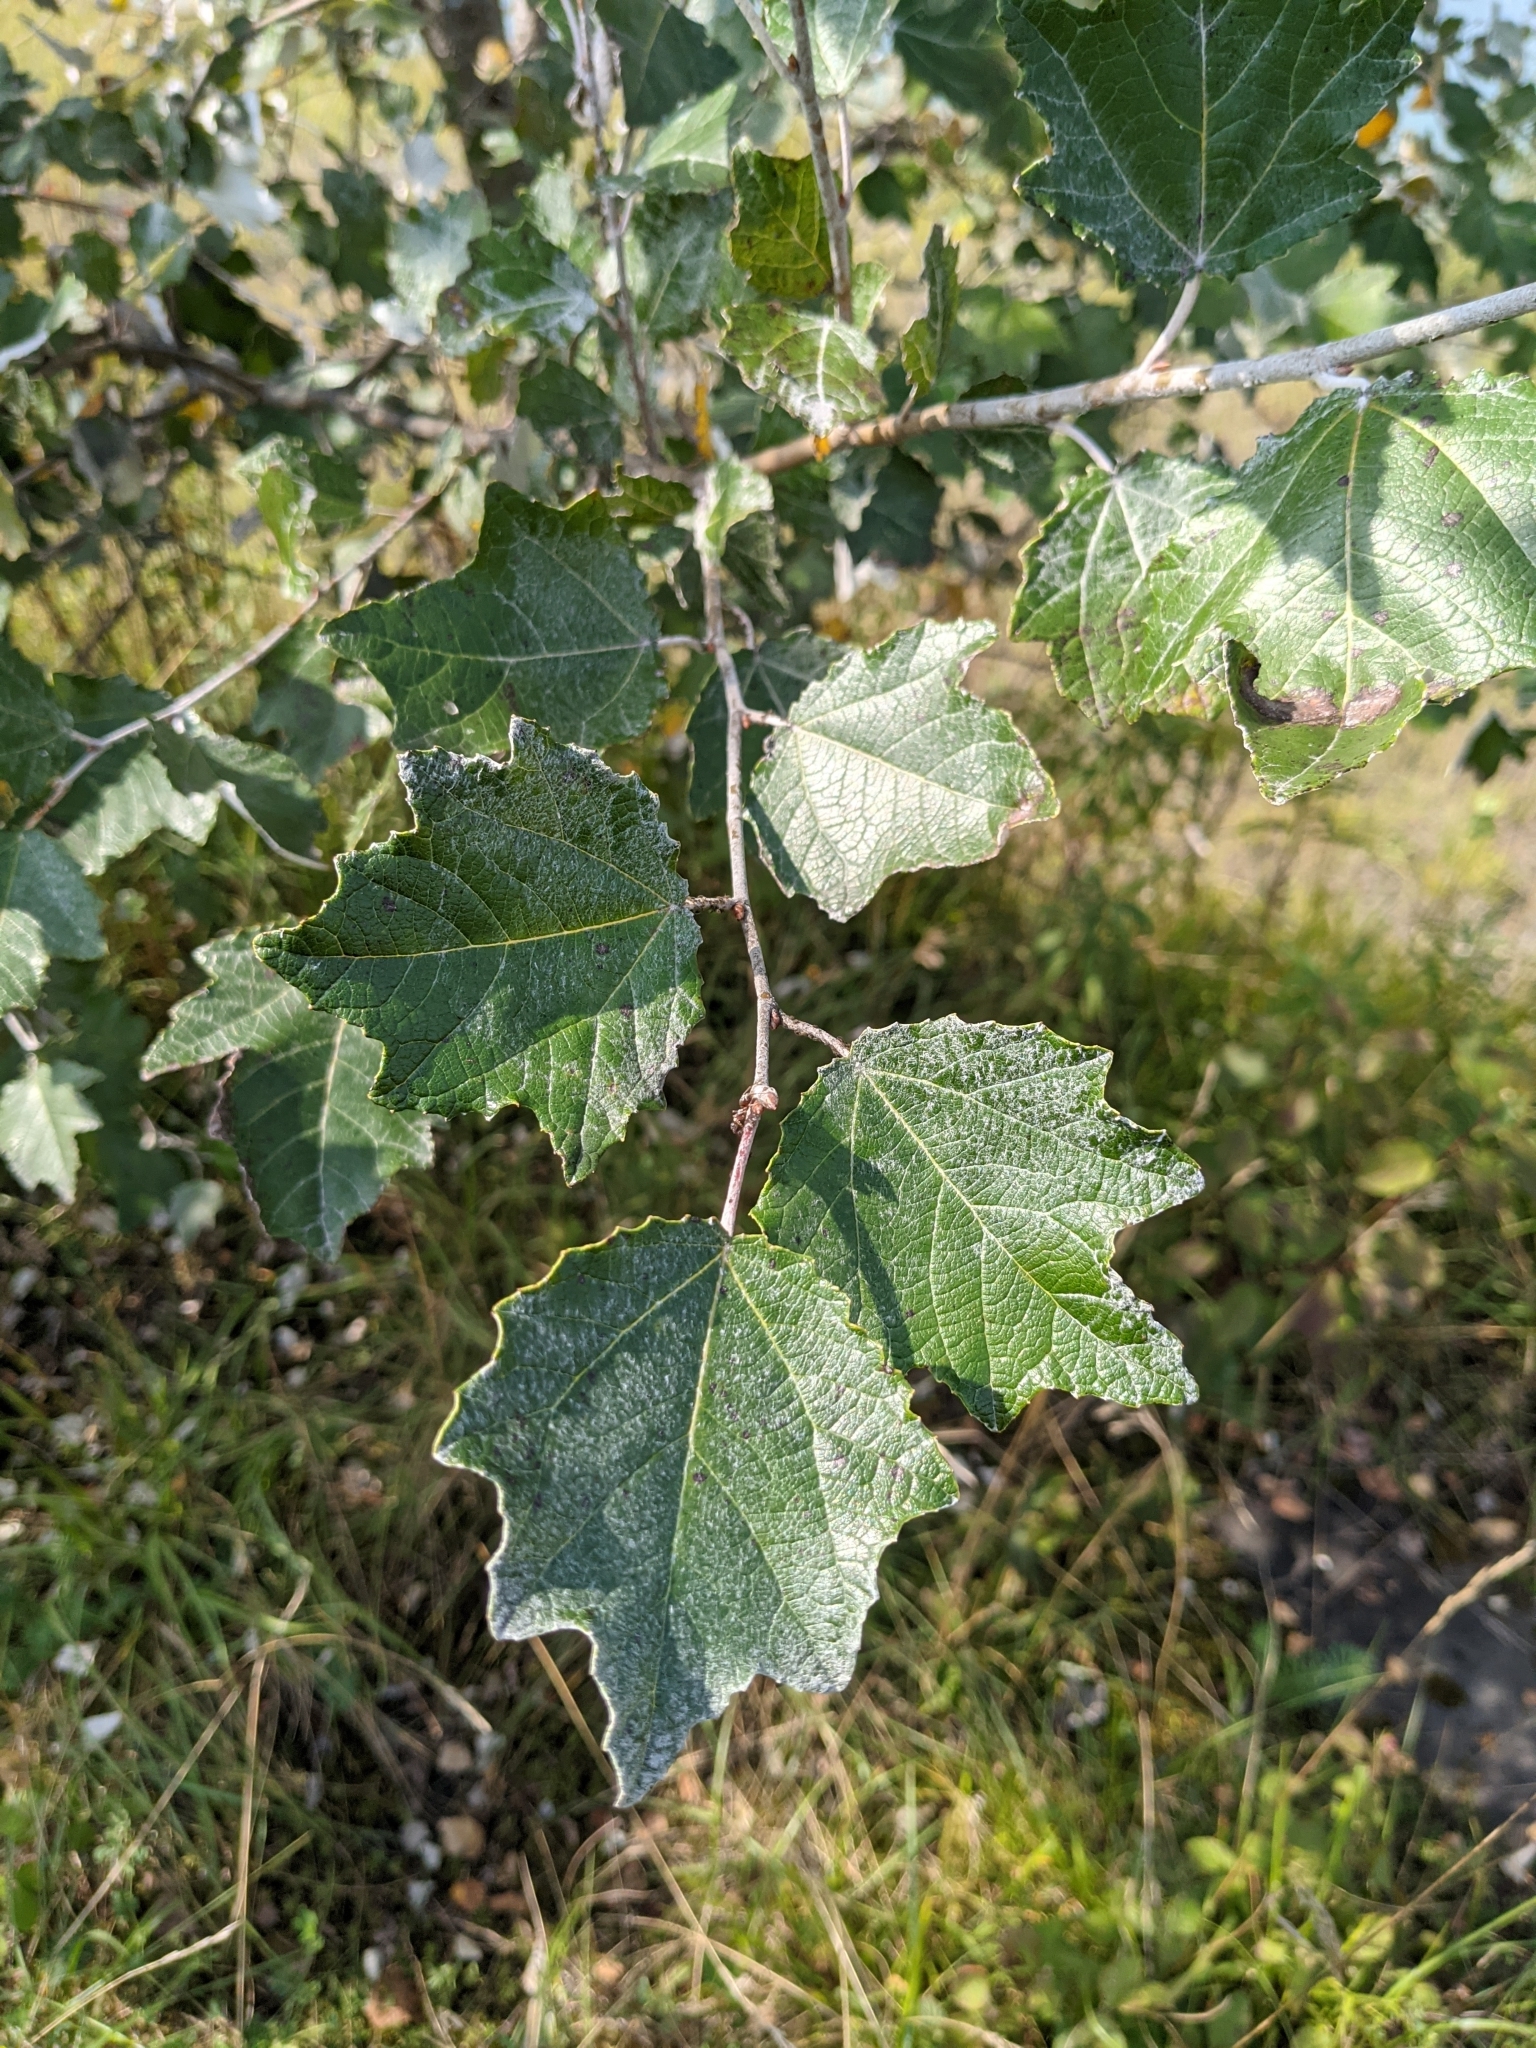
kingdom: Plantae
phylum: Tracheophyta
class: Magnoliopsida
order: Malpighiales
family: Salicaceae
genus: Populus
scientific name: Populus alba
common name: White poplar
